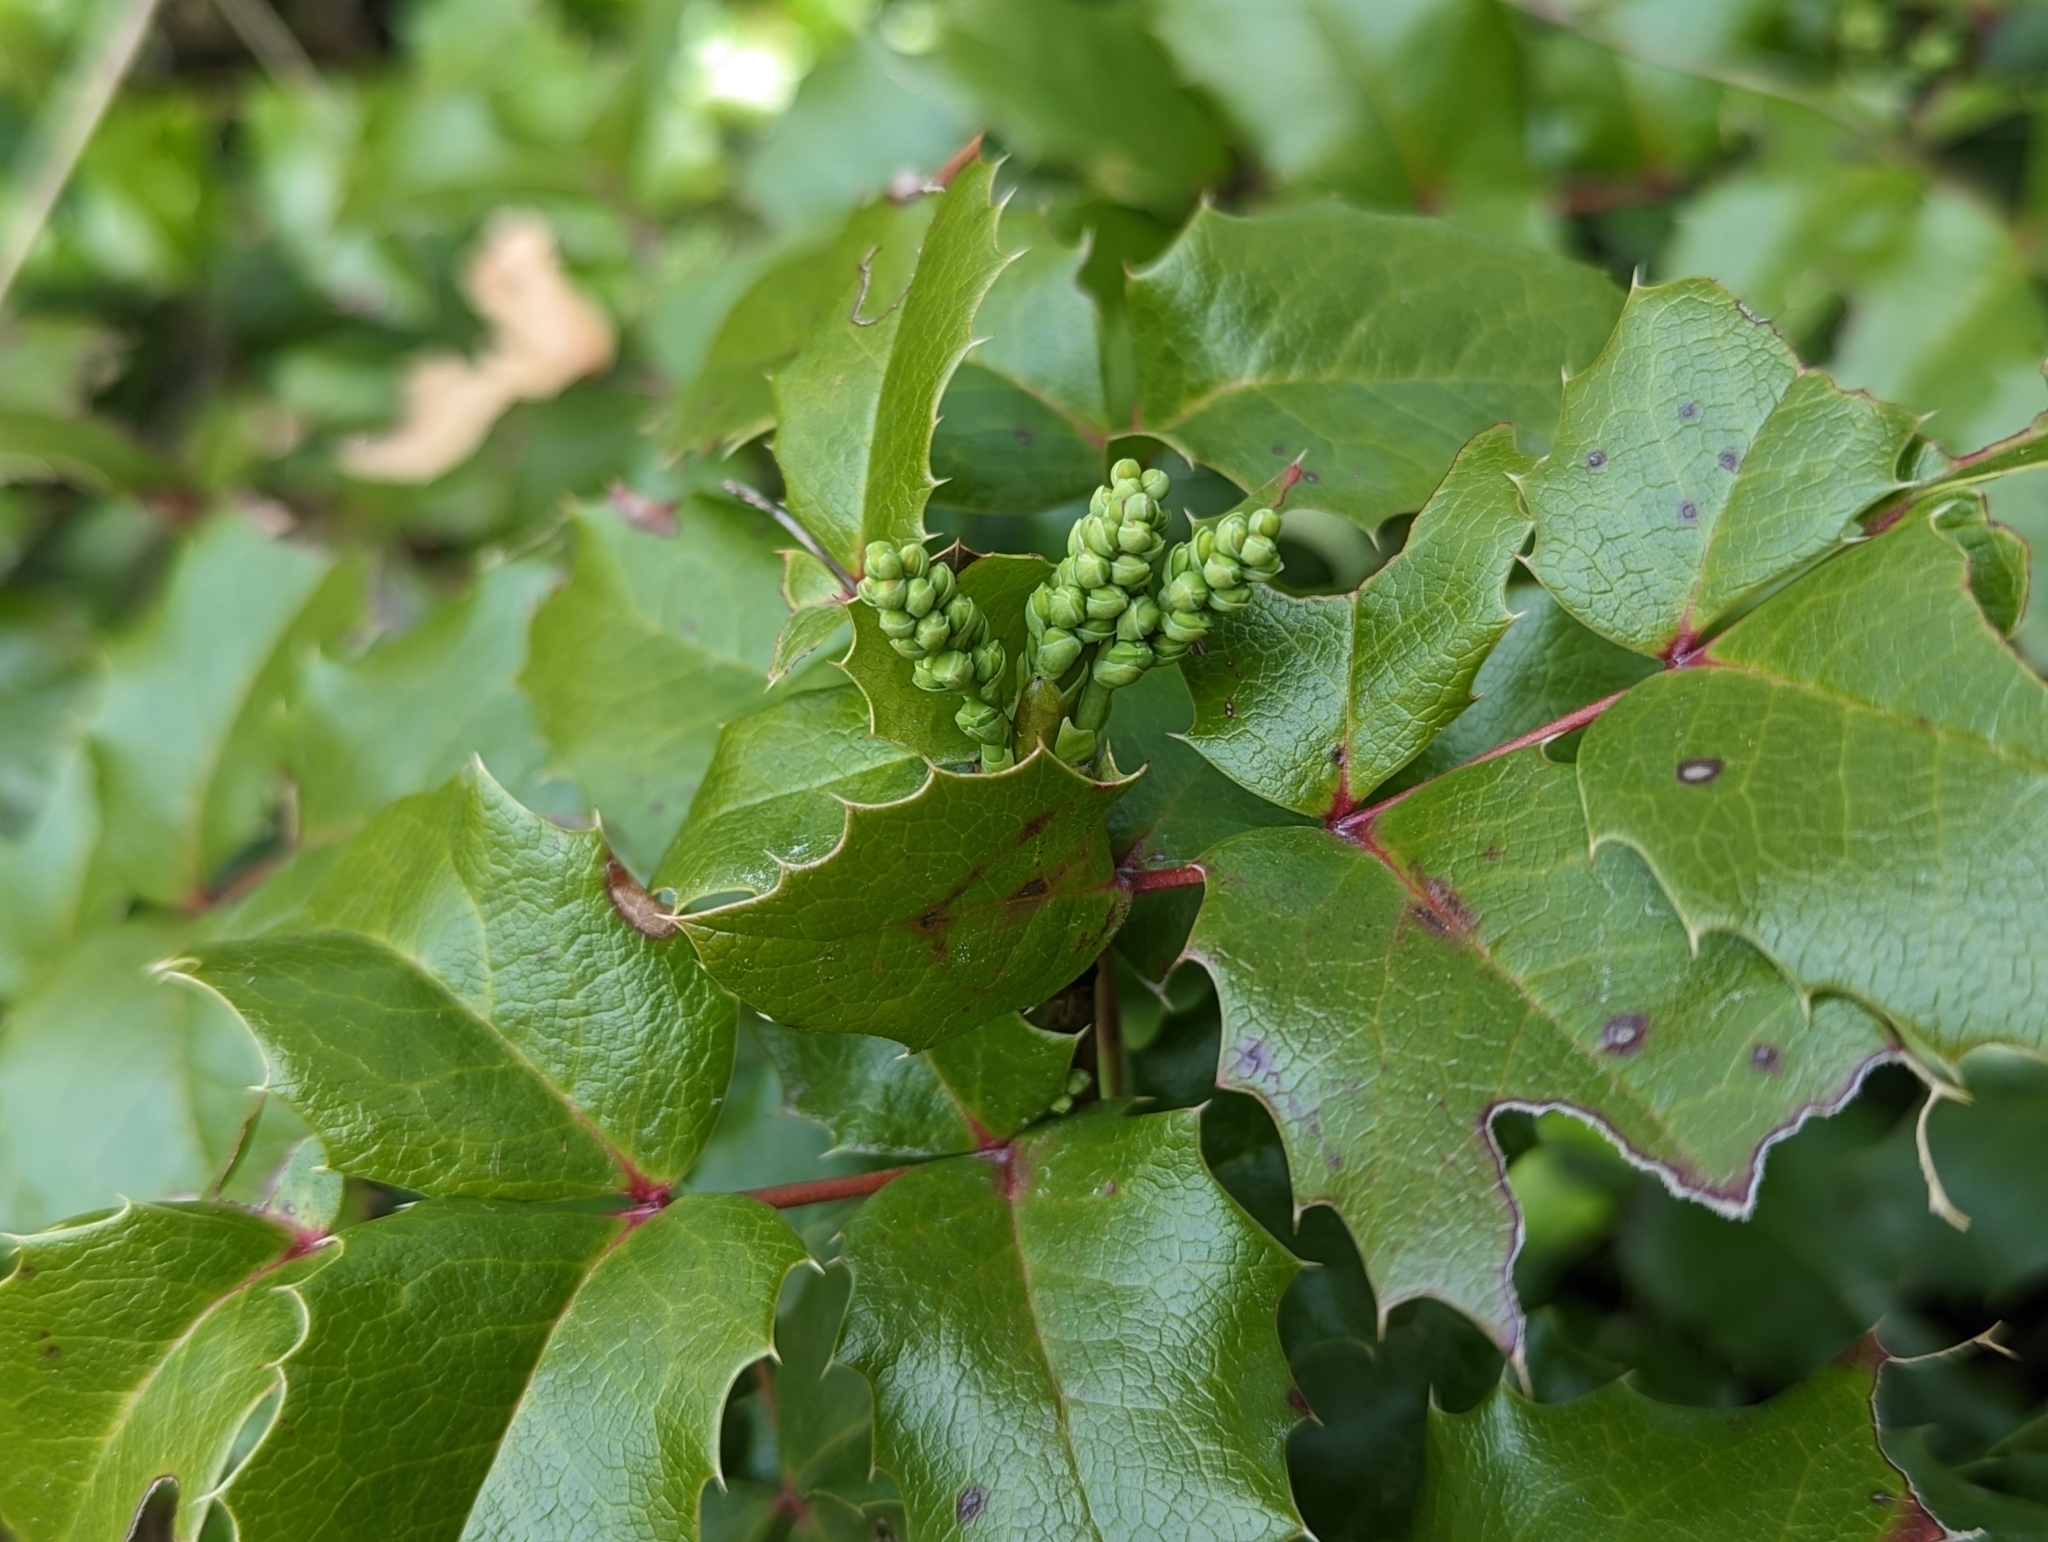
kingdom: Plantae
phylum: Tracheophyta
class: Magnoliopsida
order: Ranunculales
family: Berberidaceae
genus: Mahonia
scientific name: Mahonia aquifolium
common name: Oregon-grape
